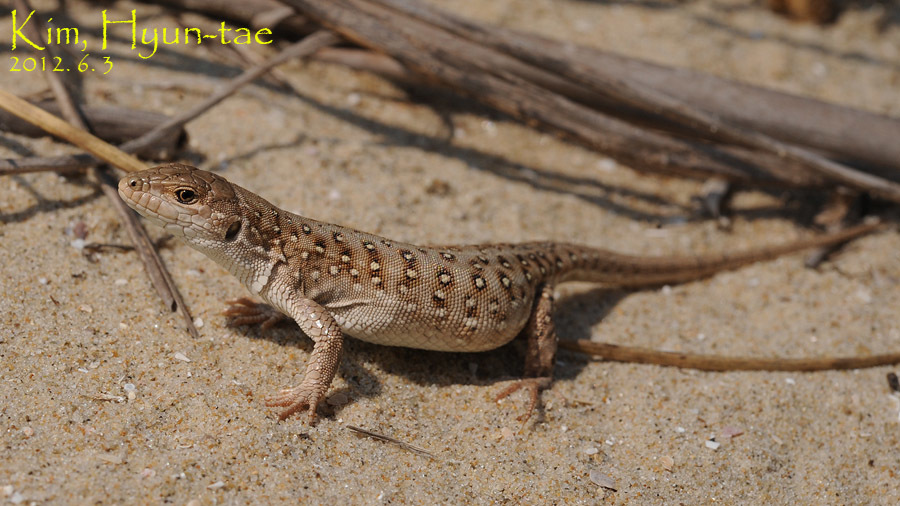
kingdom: Animalia
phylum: Chordata
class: Squamata
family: Lacertidae
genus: Eremias
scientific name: Eremias argus
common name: Mongolia racerunner
